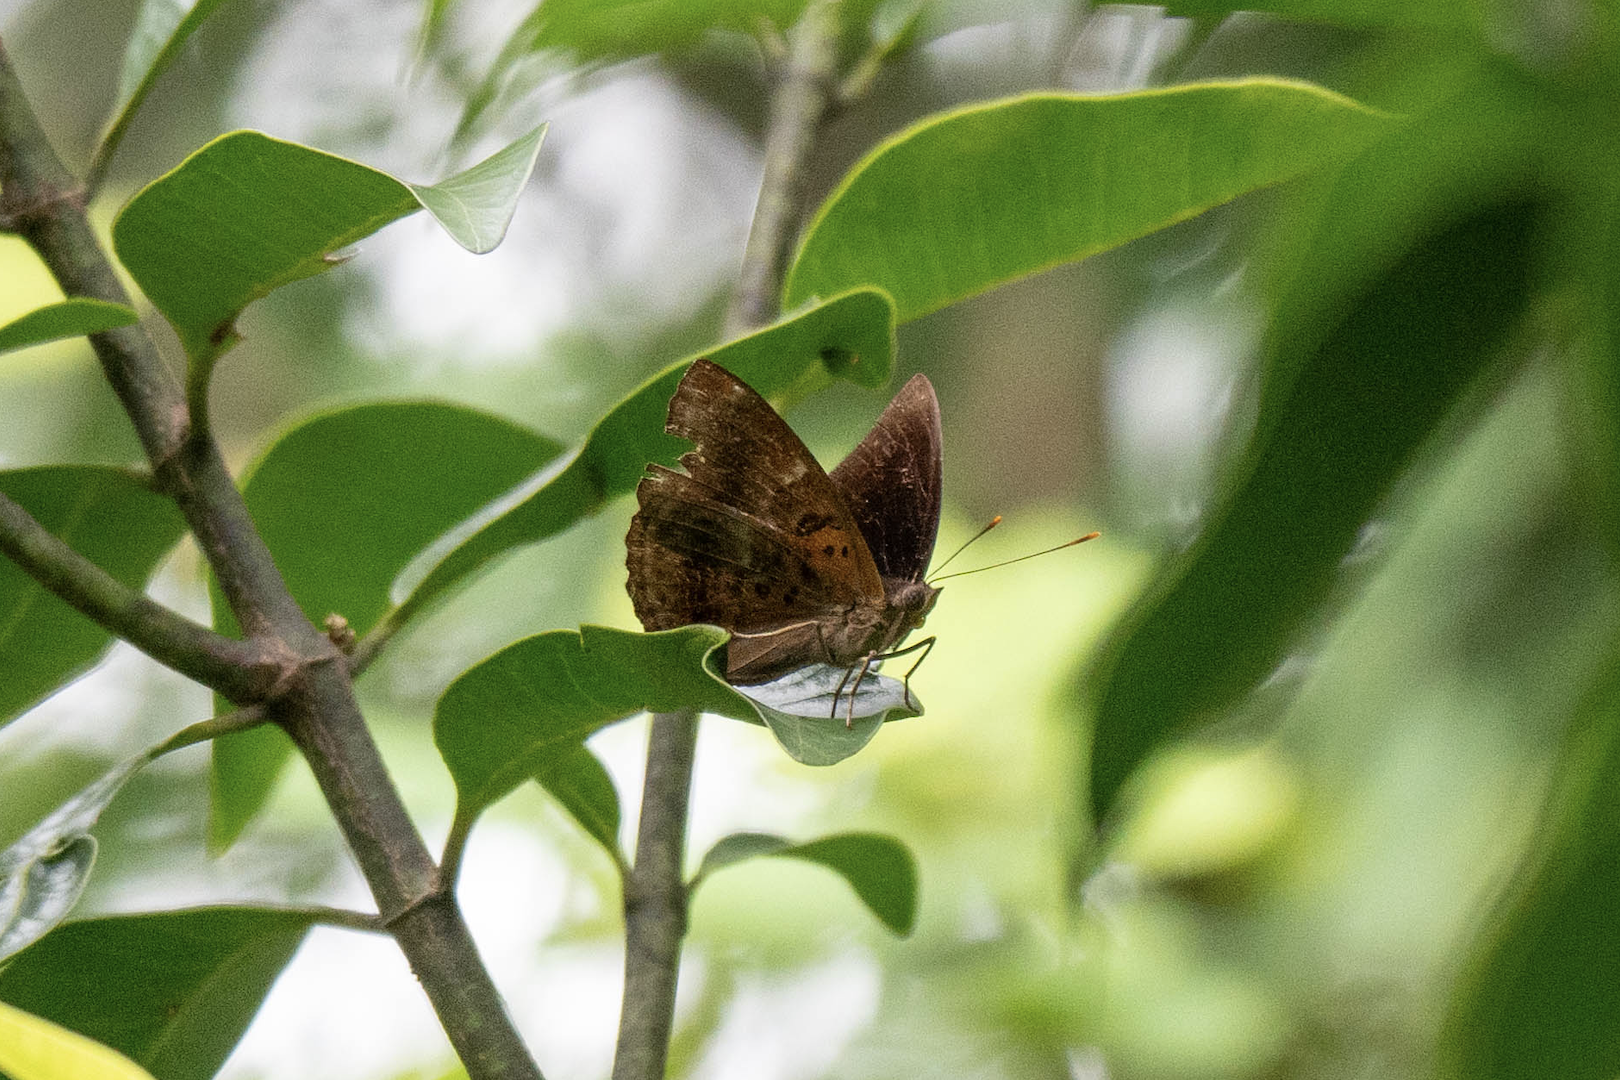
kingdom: Animalia
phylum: Arthropoda
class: Insecta
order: Lepidoptera
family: Nymphalidae
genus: Apatura
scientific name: Apatura Rohana spec
